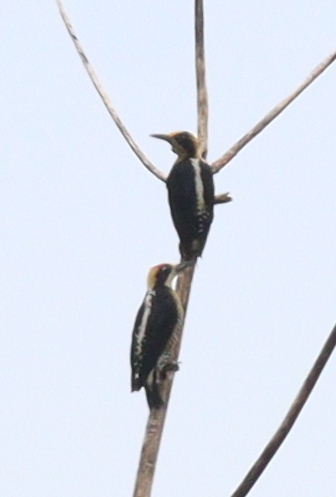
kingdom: Animalia
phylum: Chordata
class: Aves
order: Piciformes
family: Picidae
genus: Melanerpes
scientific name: Melanerpes chrysauchen
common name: Golden-naped woodpecker
